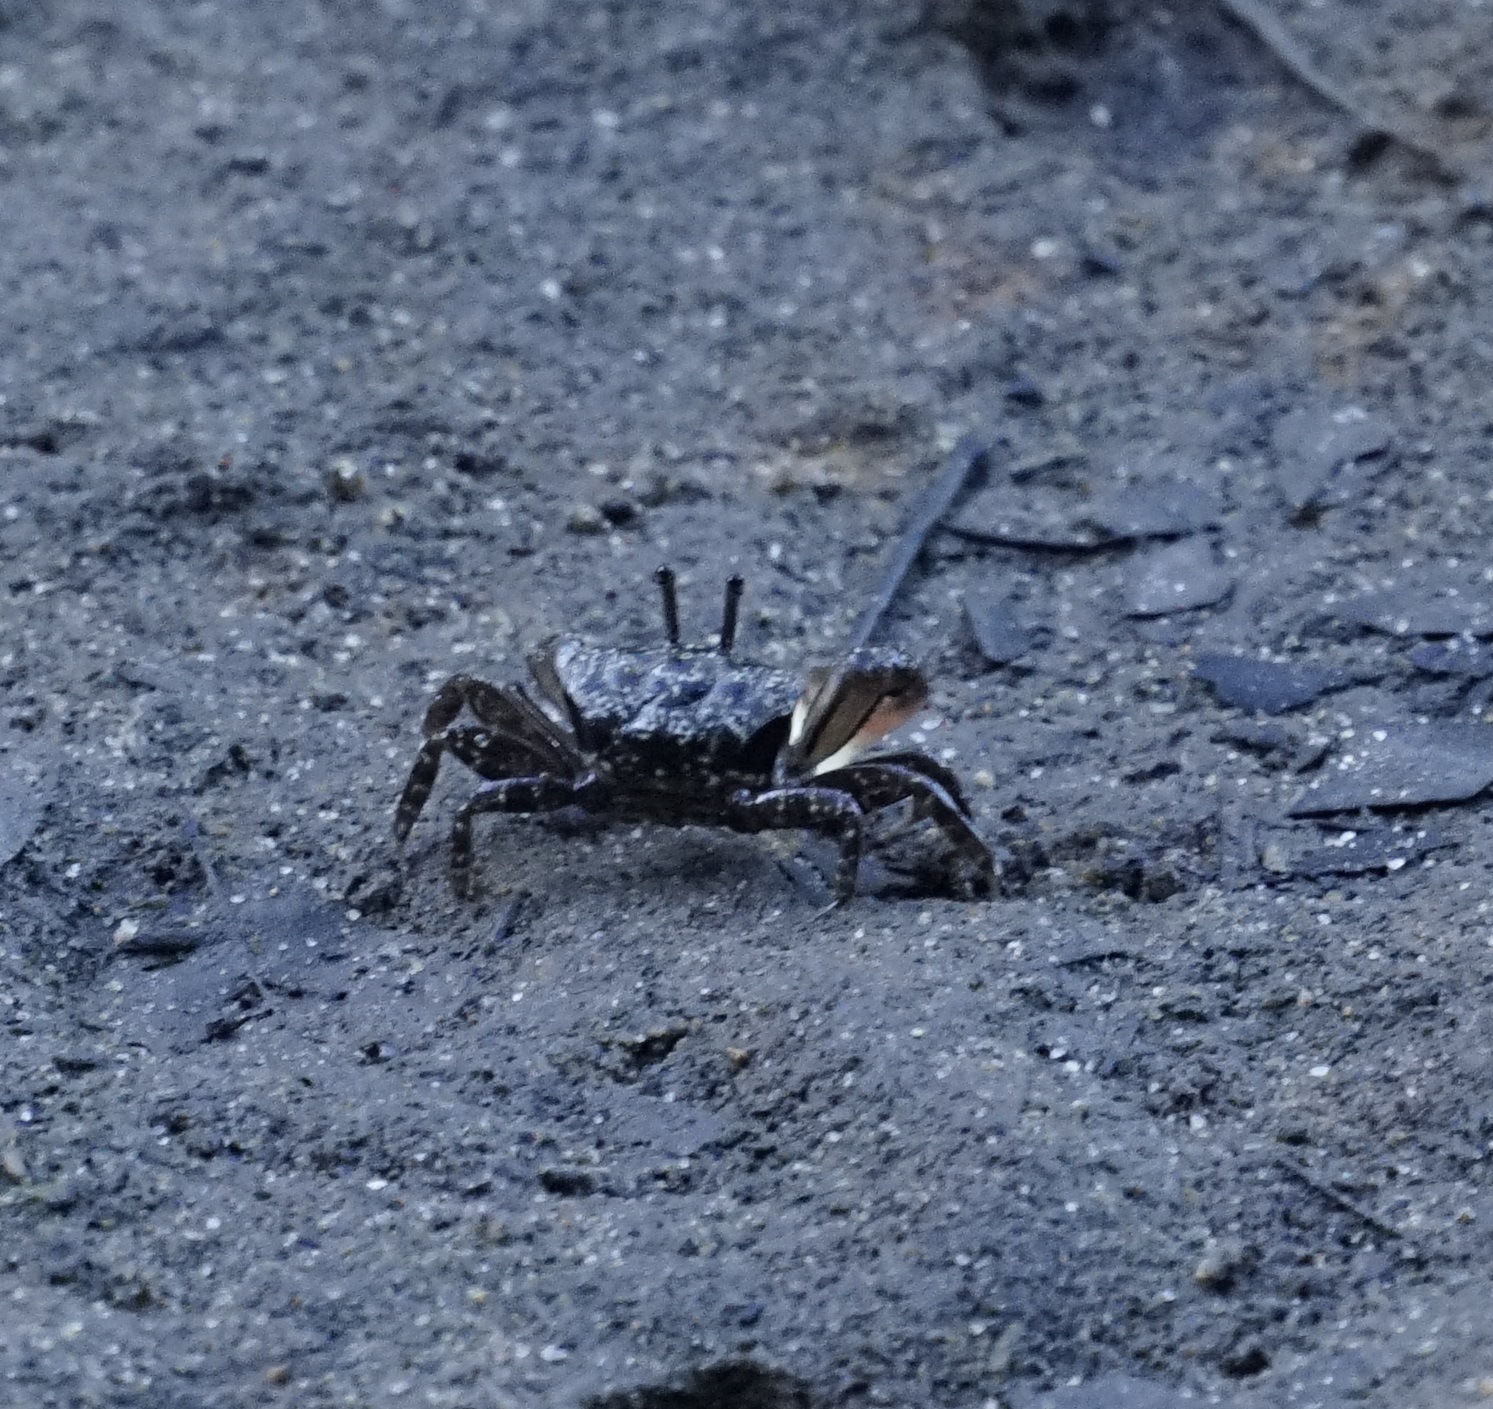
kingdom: Animalia
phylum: Arthropoda
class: Malacostraca
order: Decapoda
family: Heloeciidae
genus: Heloecius
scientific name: Heloecius cordiformis
